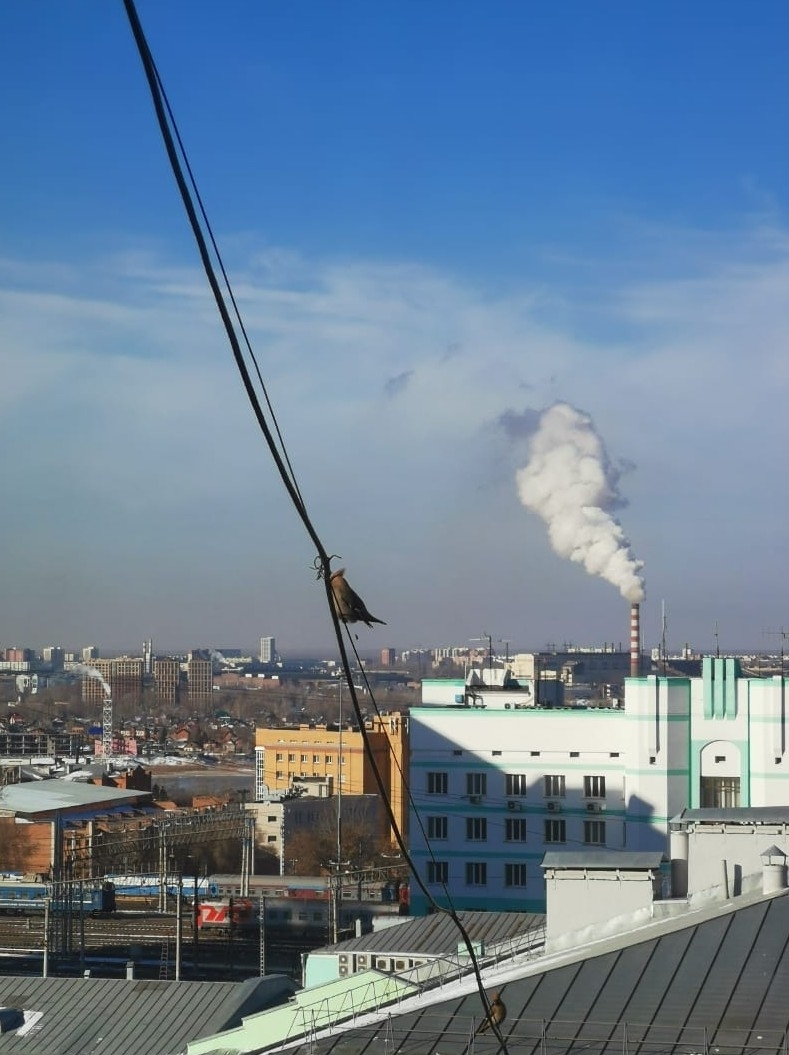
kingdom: Animalia
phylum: Chordata
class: Aves
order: Passeriformes
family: Bombycillidae
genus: Bombycilla
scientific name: Bombycilla garrulus
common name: Bohemian waxwing
